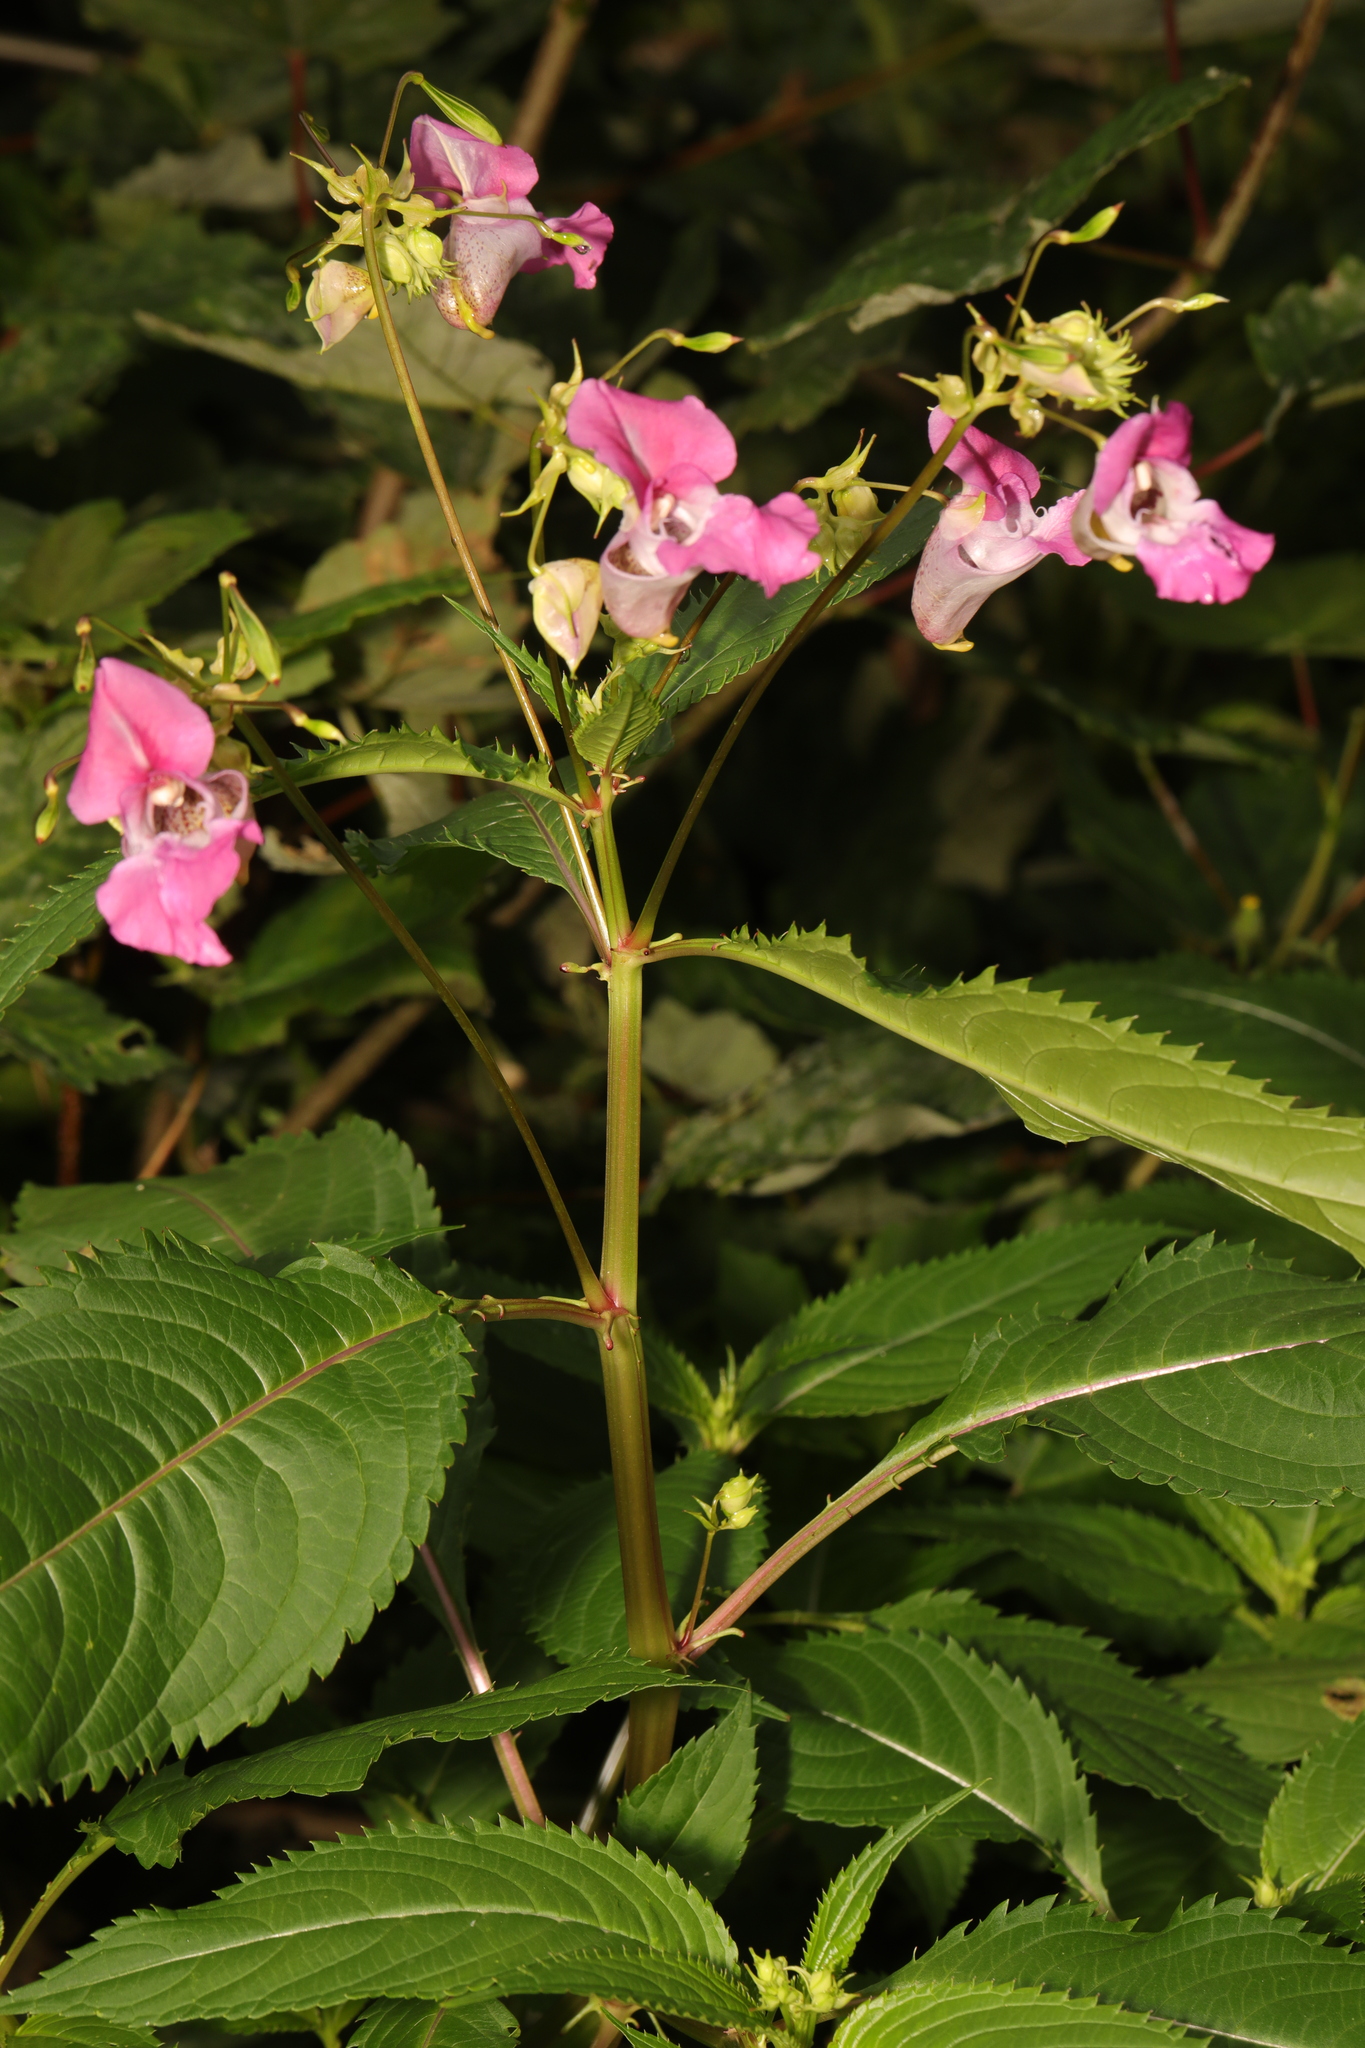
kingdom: Plantae
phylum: Tracheophyta
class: Magnoliopsida
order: Ericales
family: Balsaminaceae
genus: Impatiens
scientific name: Impatiens glandulifera
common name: Himalayan balsam
